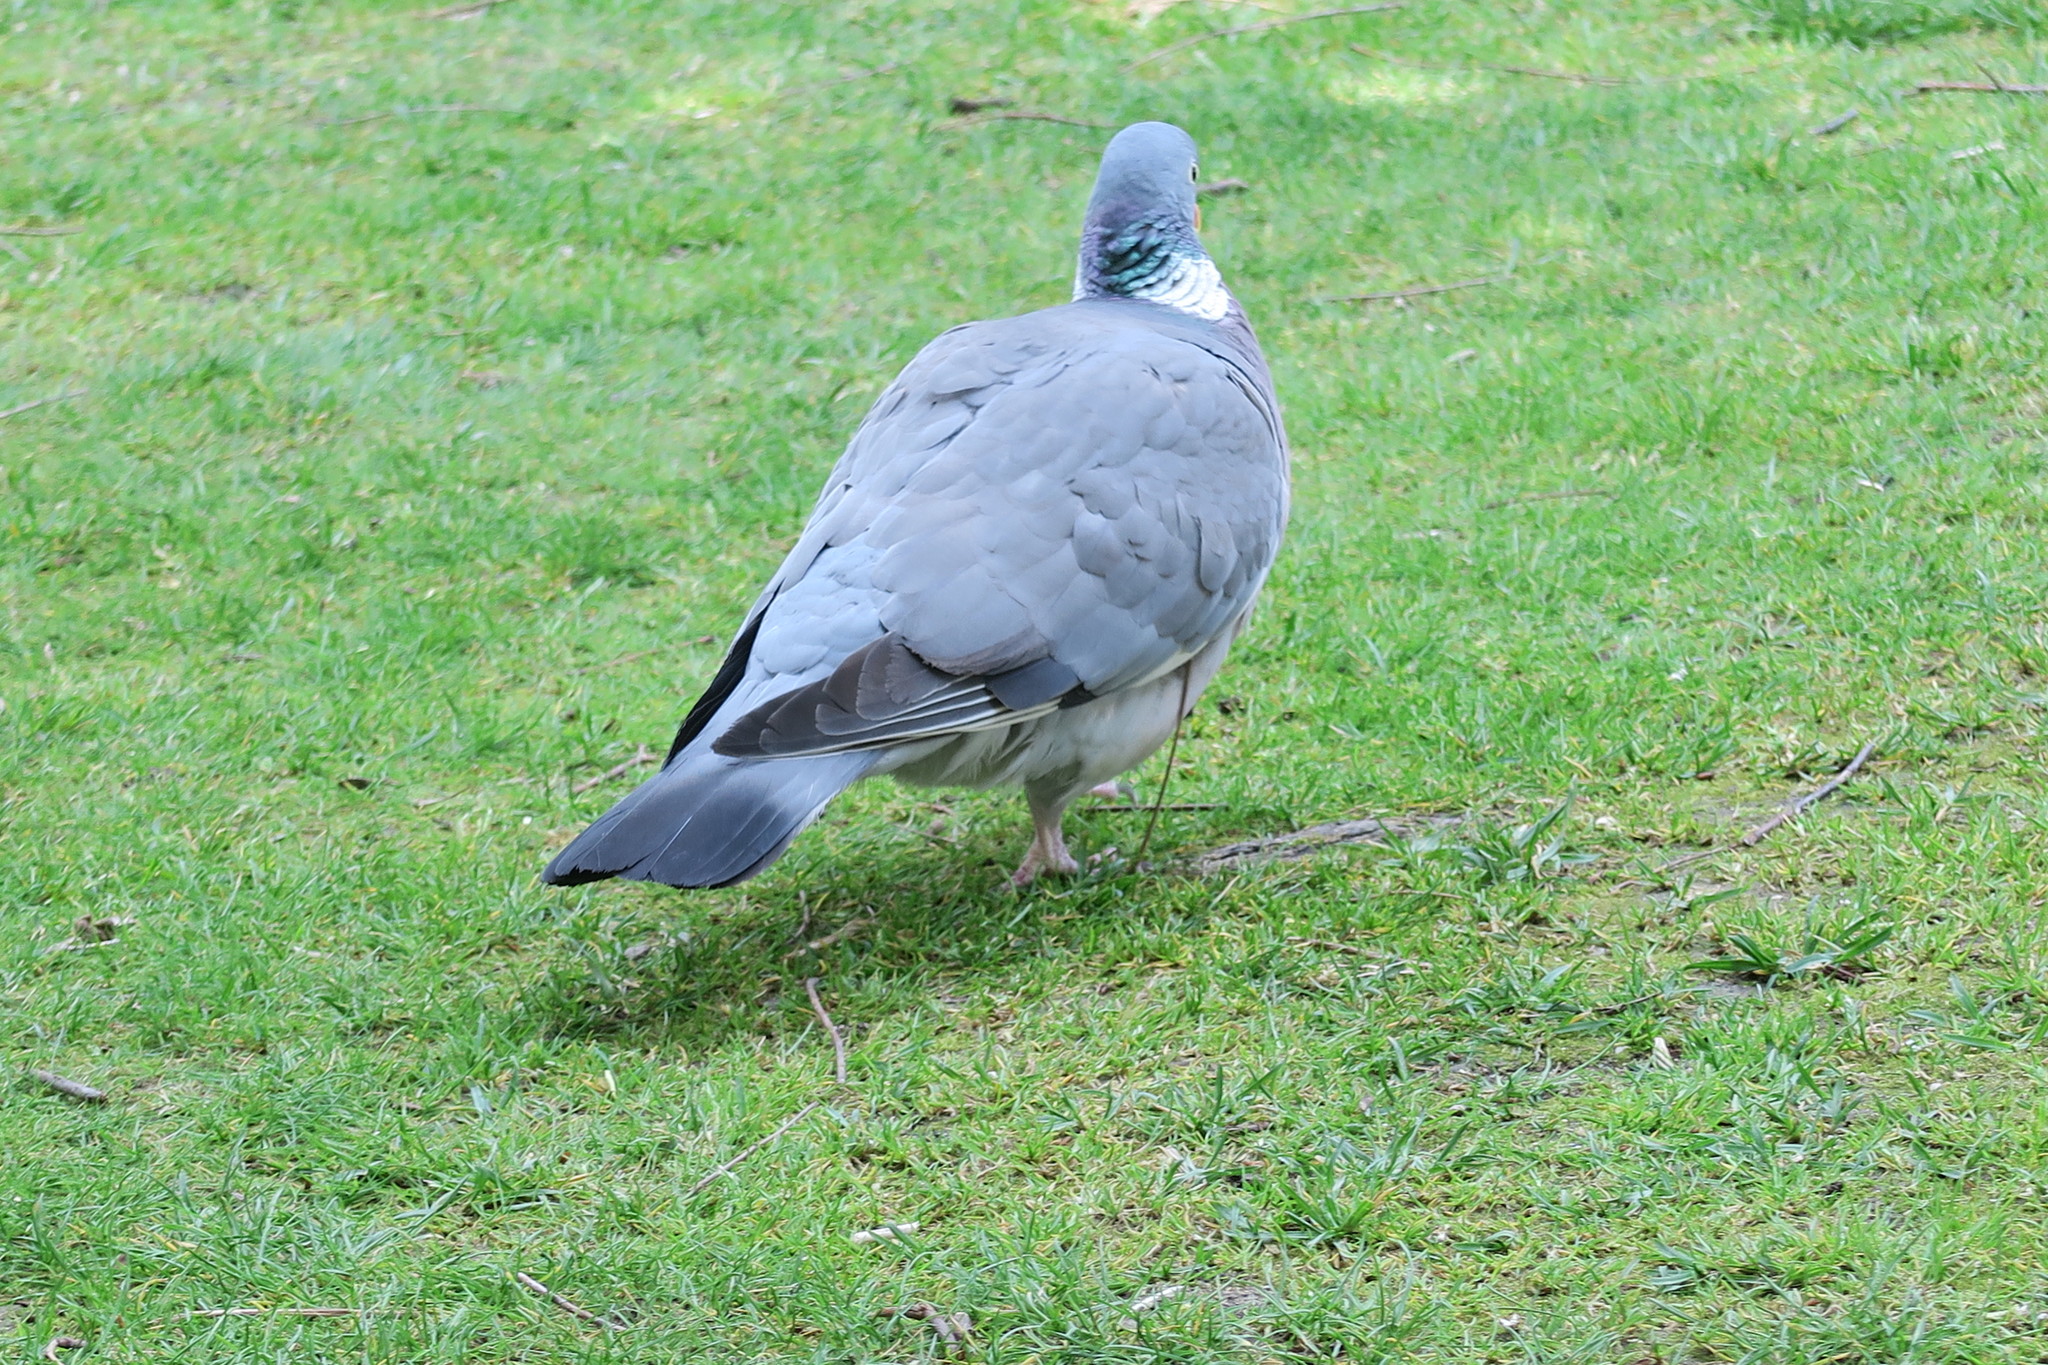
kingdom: Animalia
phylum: Chordata
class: Aves
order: Columbiformes
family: Columbidae
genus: Columba
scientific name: Columba palumbus
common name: Common wood pigeon
